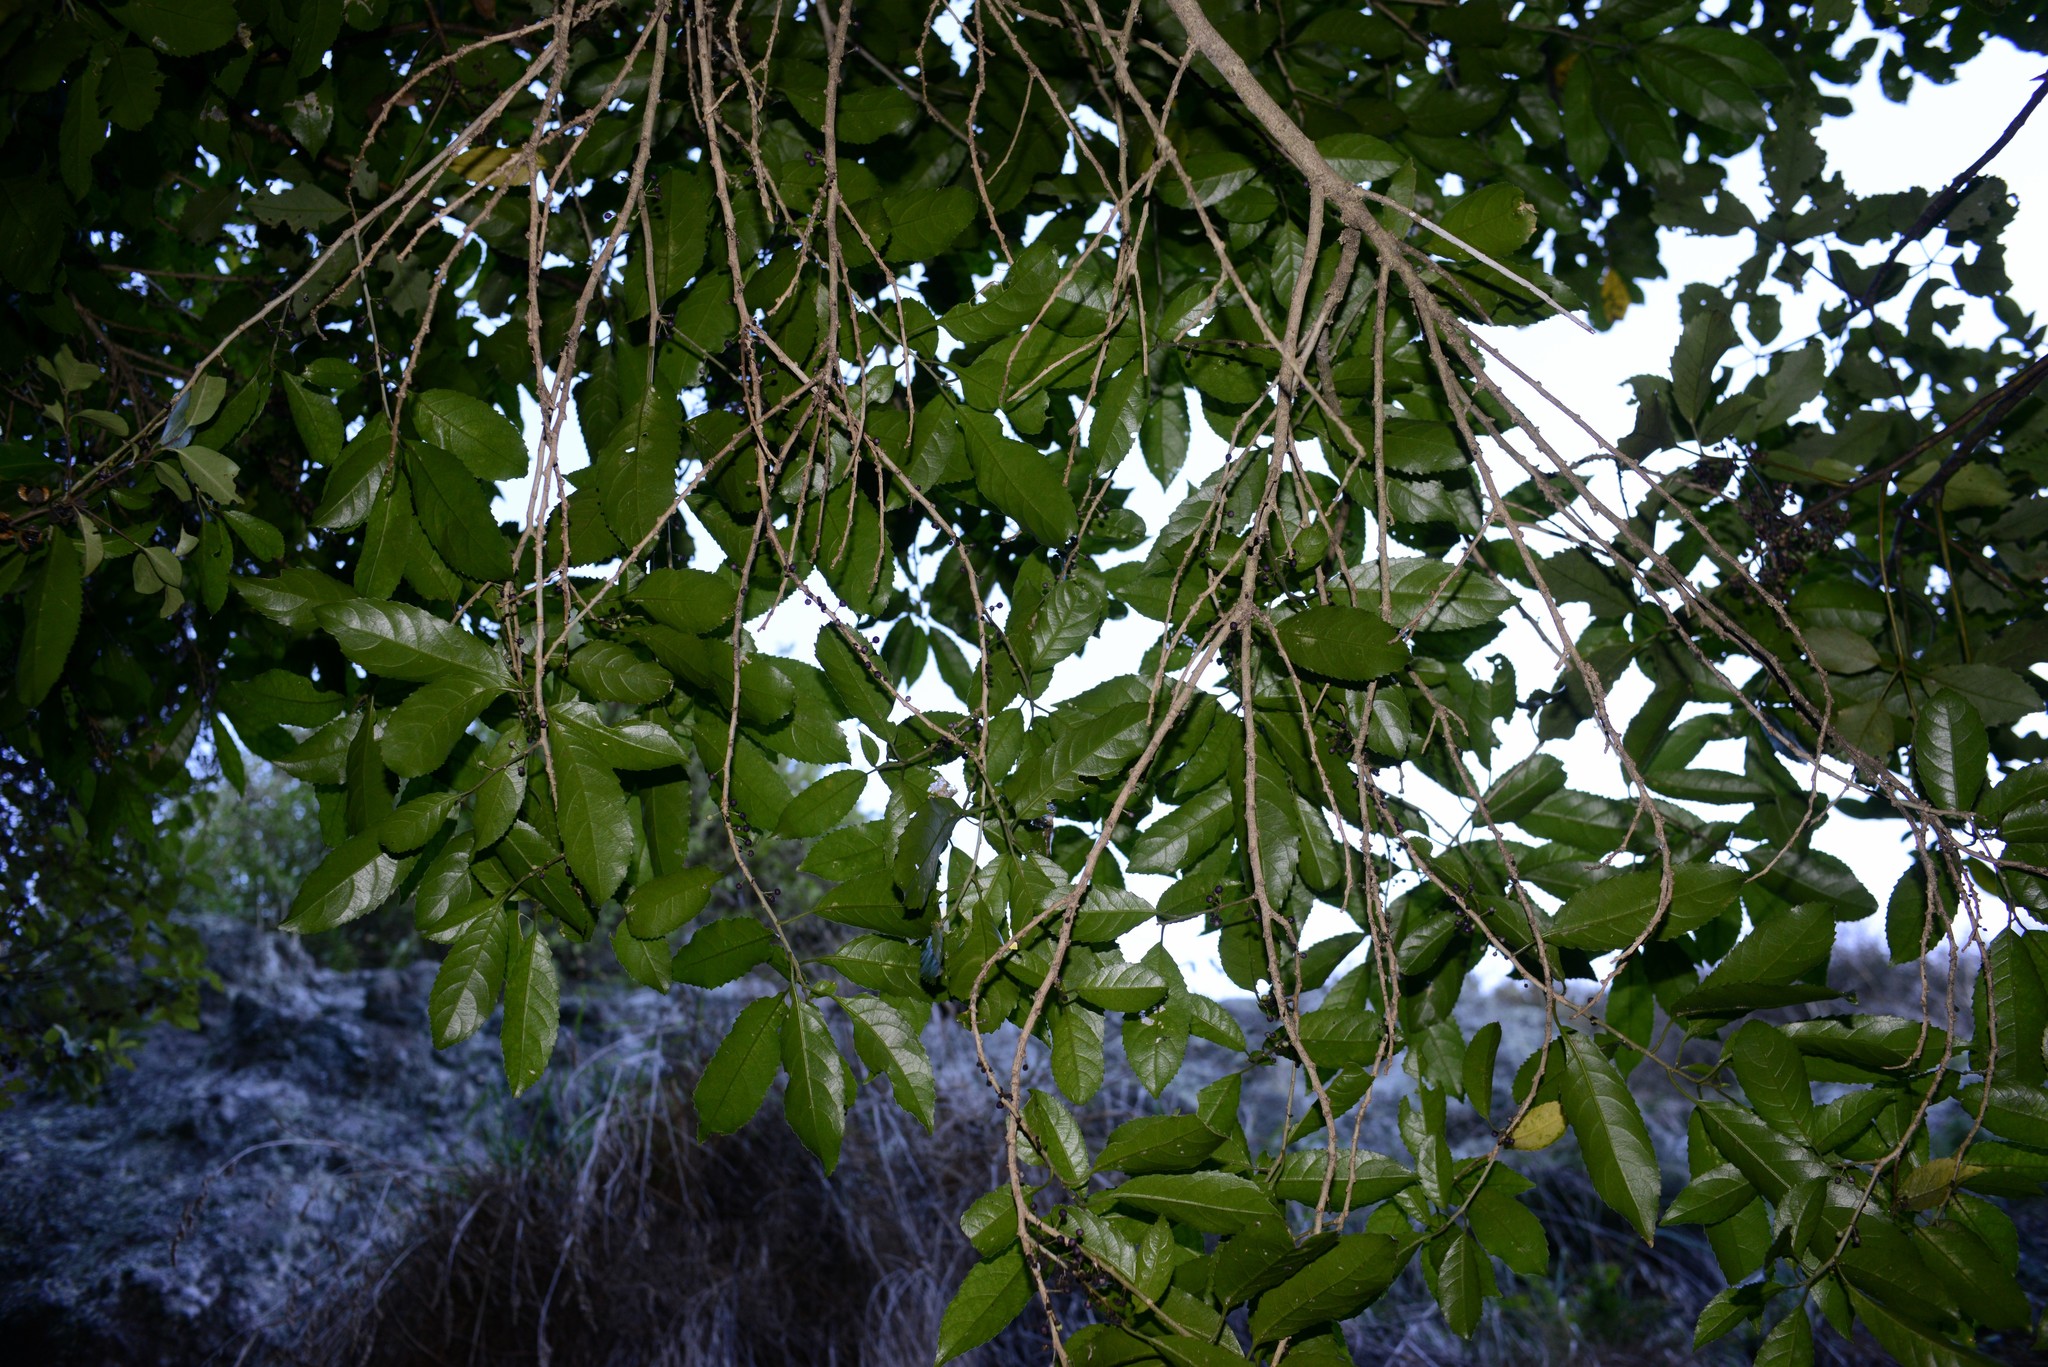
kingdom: Plantae
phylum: Tracheophyta
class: Magnoliopsida
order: Malpighiales
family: Violaceae
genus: Melicytus
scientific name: Melicytus ramiflorus
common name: Mahoe
